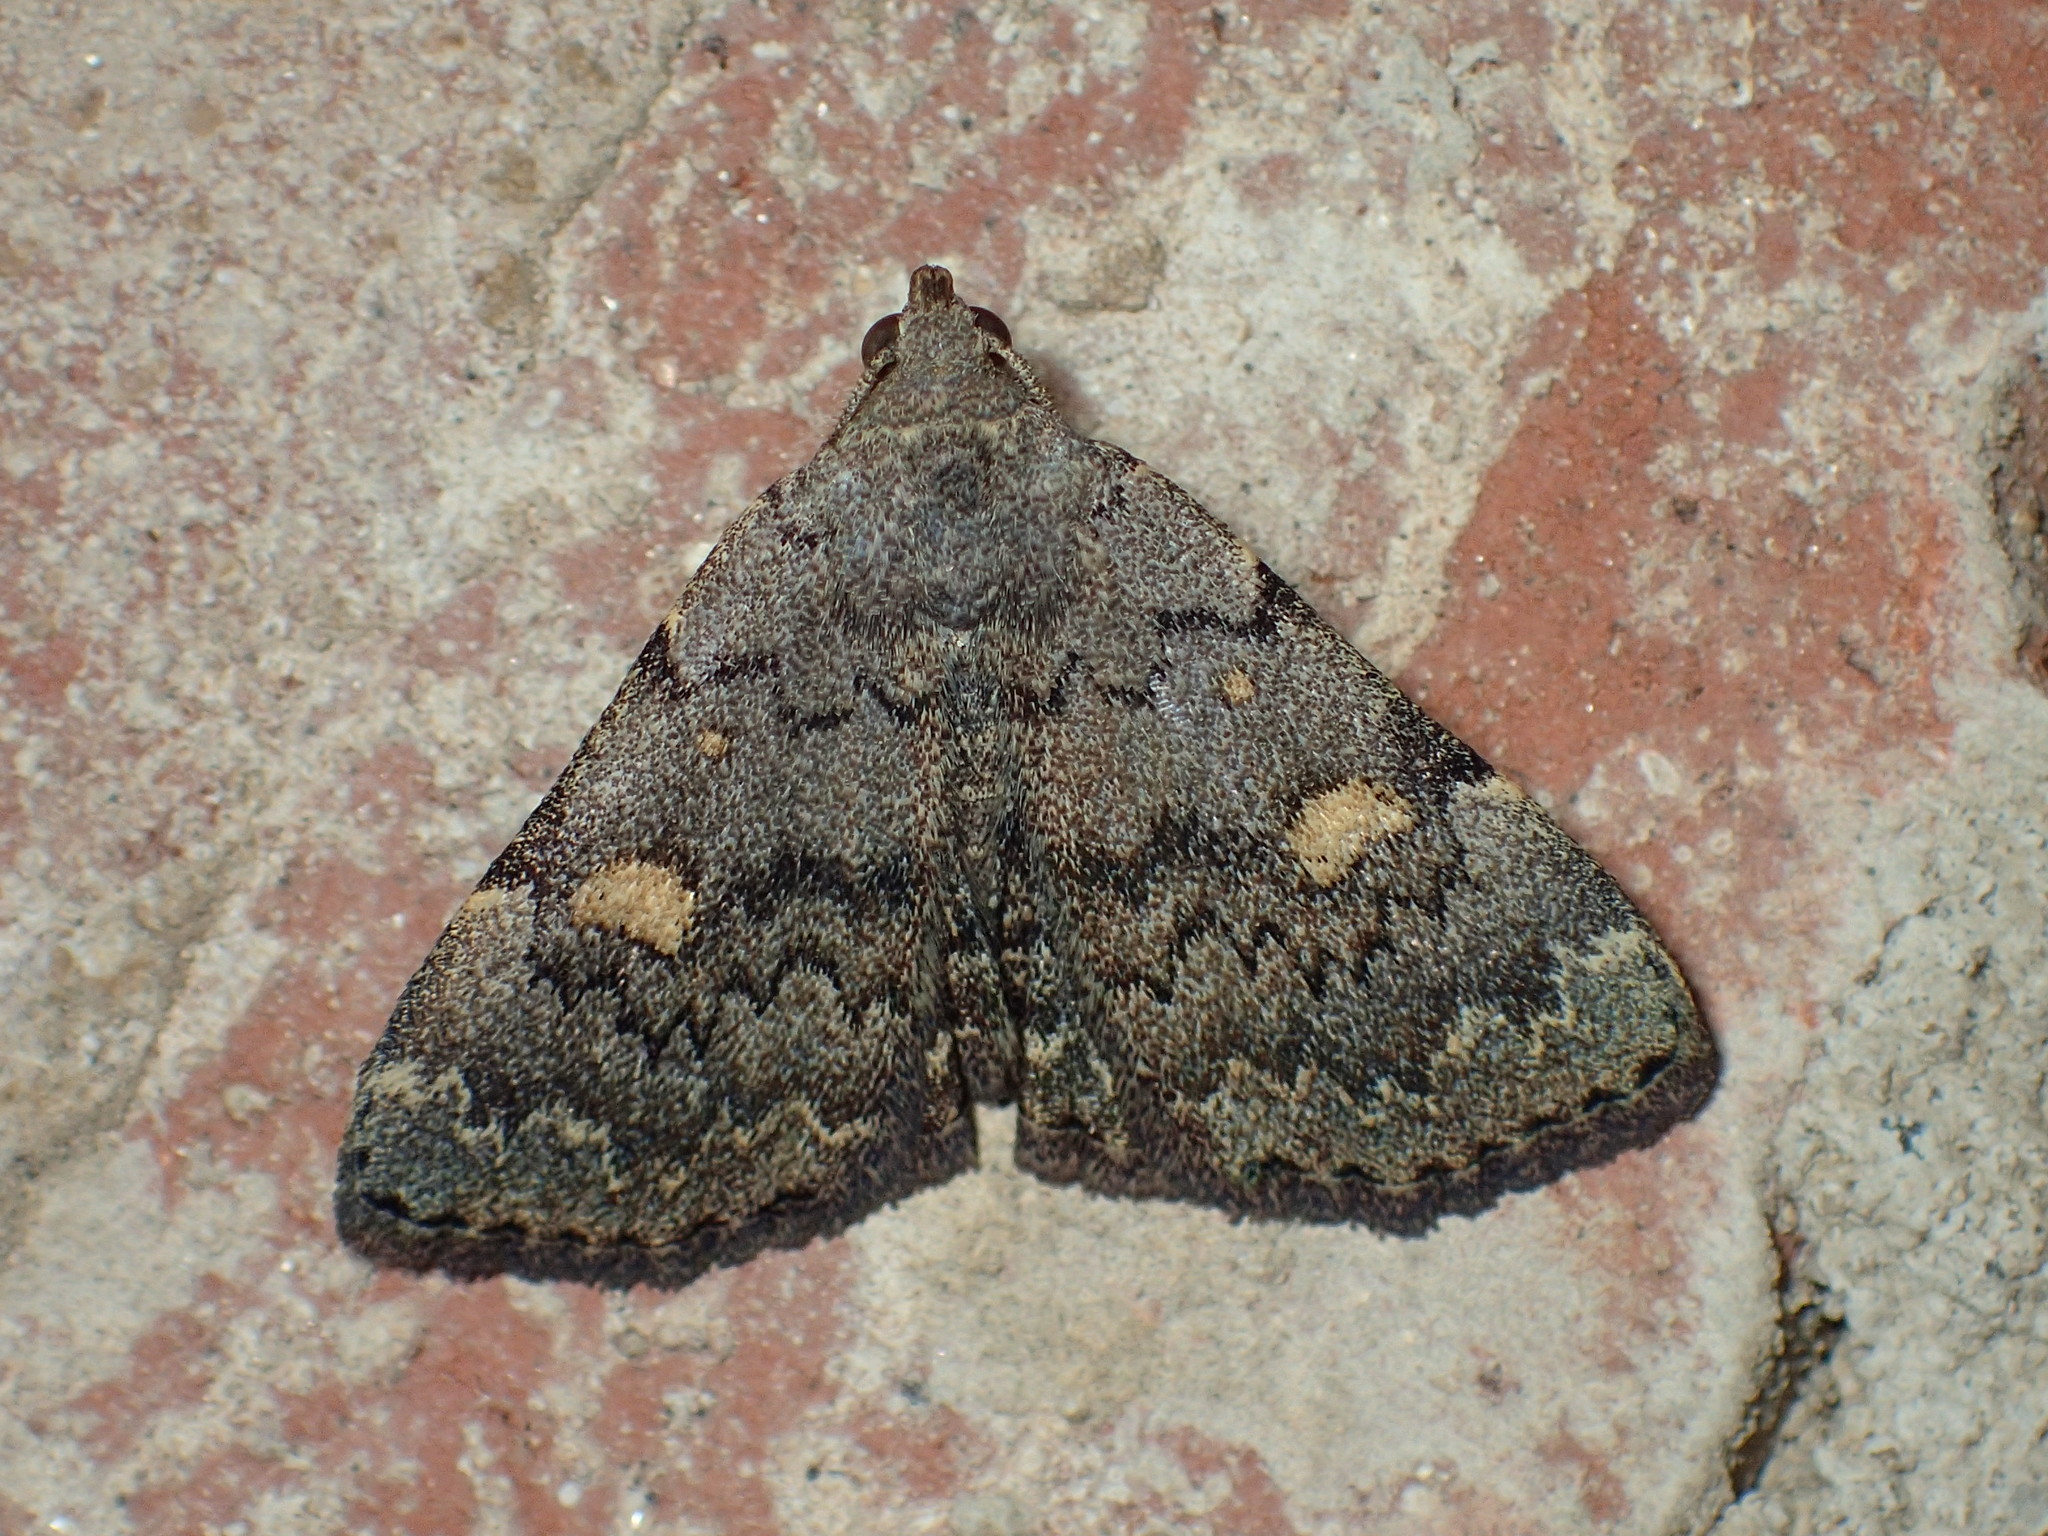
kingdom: Animalia
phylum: Arthropoda
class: Insecta
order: Lepidoptera
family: Erebidae
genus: Idia
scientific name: Idia aemula
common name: Common idia moth
